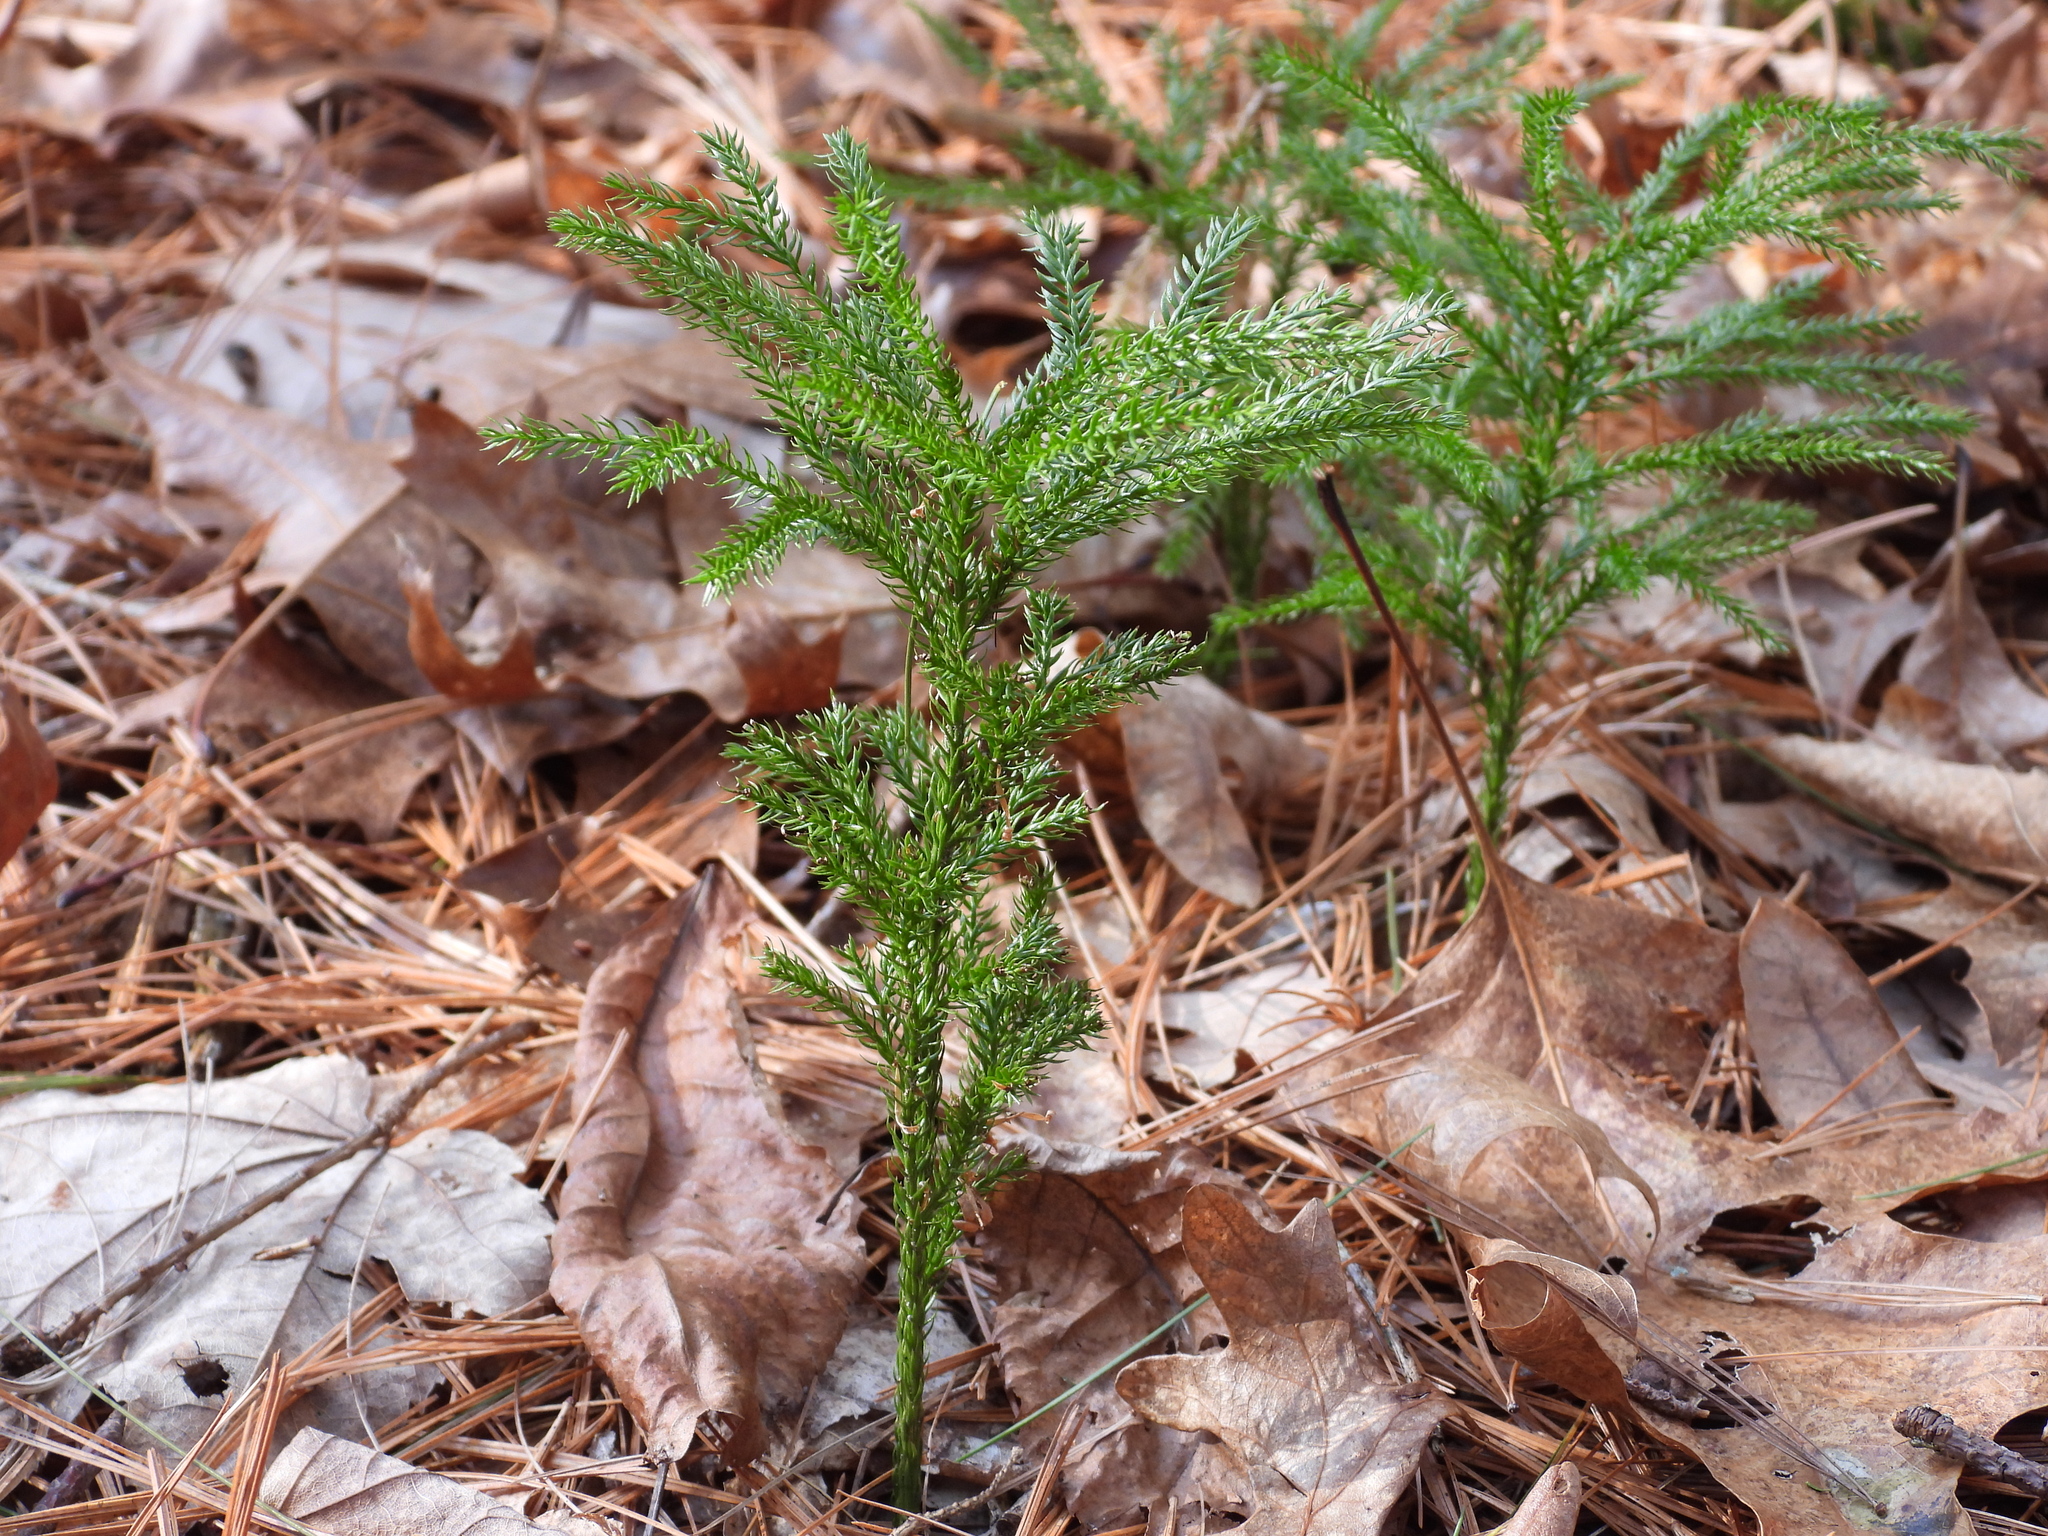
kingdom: Plantae
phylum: Tracheophyta
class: Lycopodiopsida
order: Lycopodiales
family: Lycopodiaceae
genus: Dendrolycopodium
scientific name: Dendrolycopodium hickeyi
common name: Hickey's clubmoss
